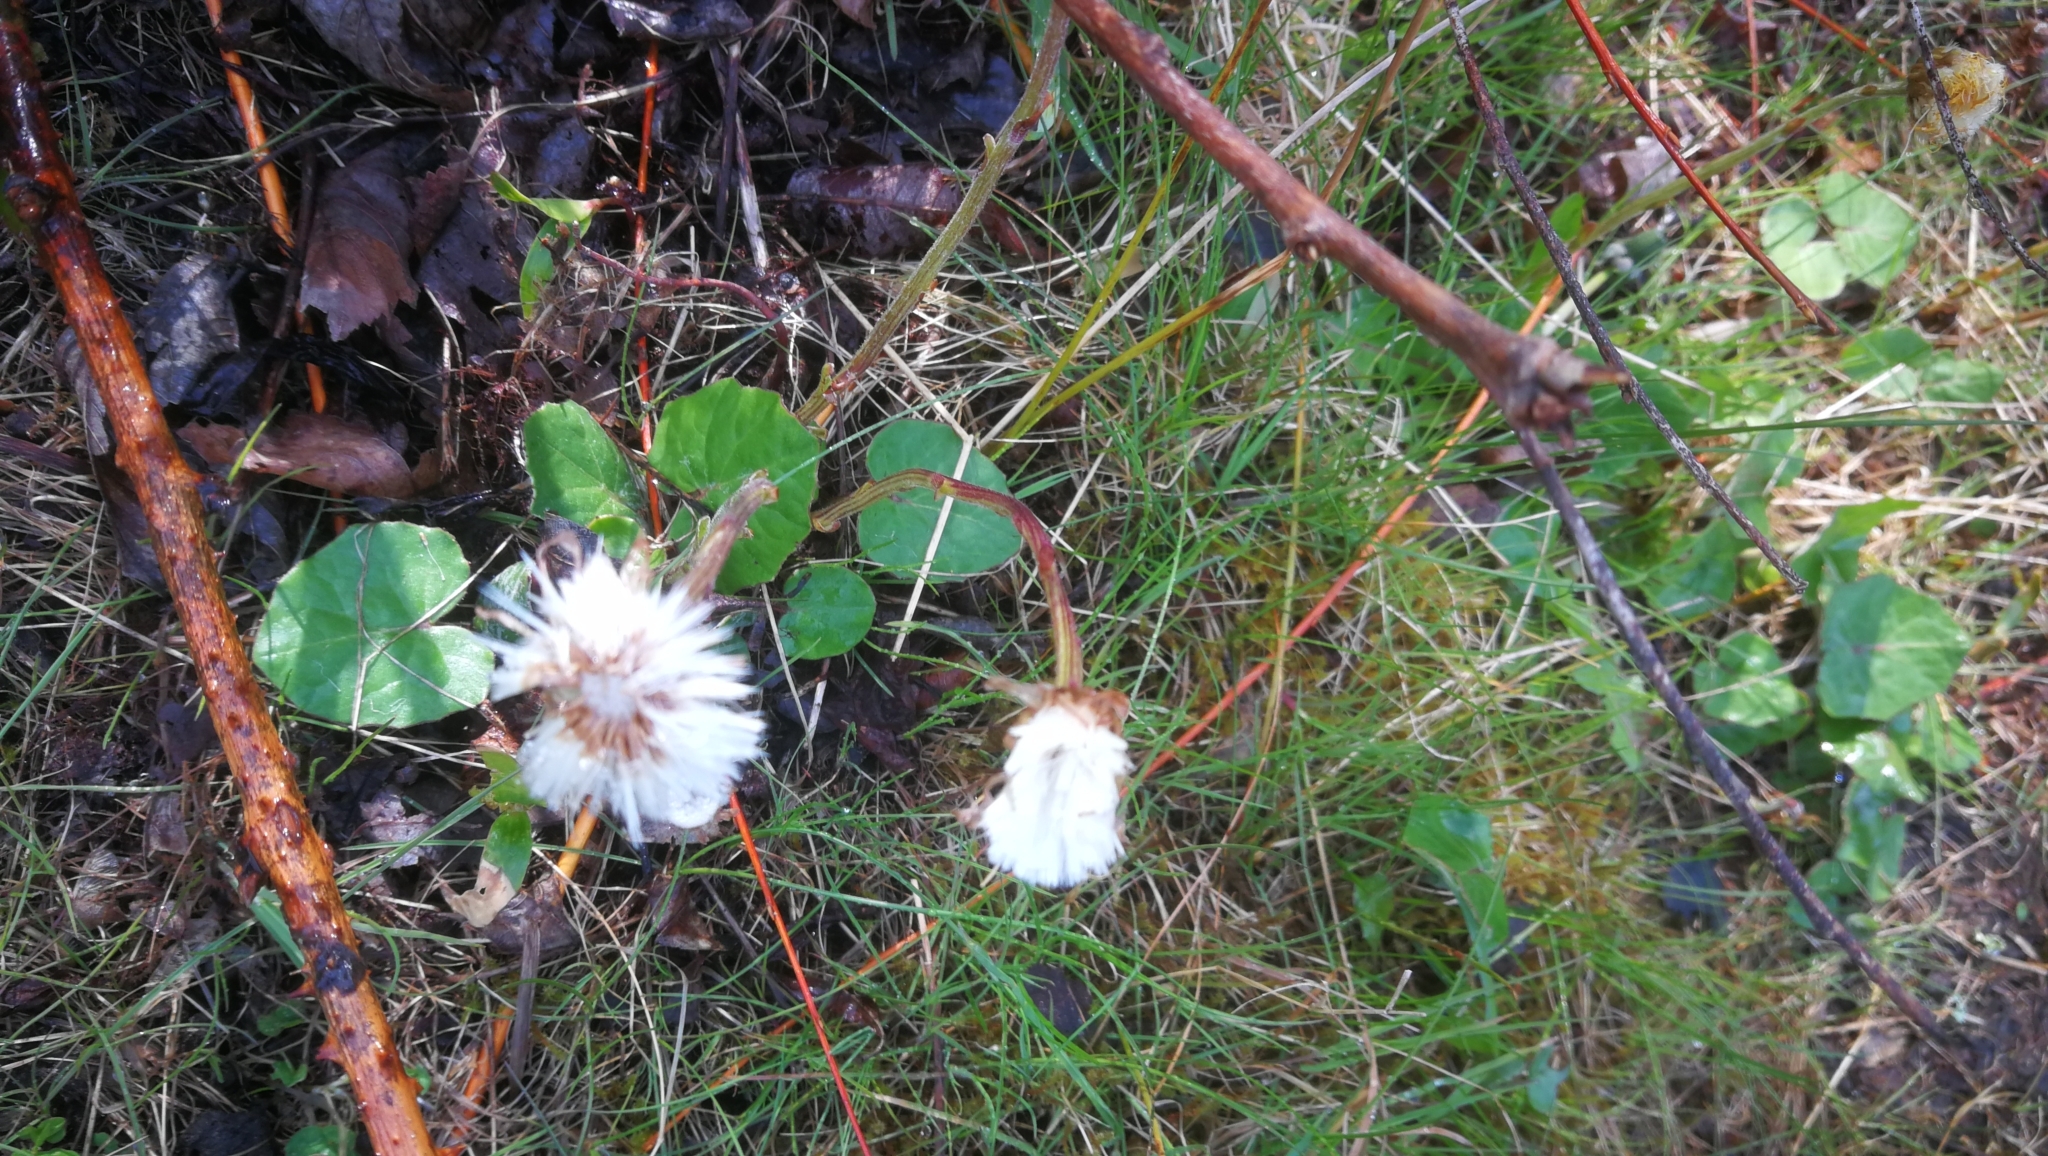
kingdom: Plantae
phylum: Tracheophyta
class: Magnoliopsida
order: Asterales
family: Asteraceae
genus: Tussilago
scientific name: Tussilago farfara
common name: Coltsfoot
